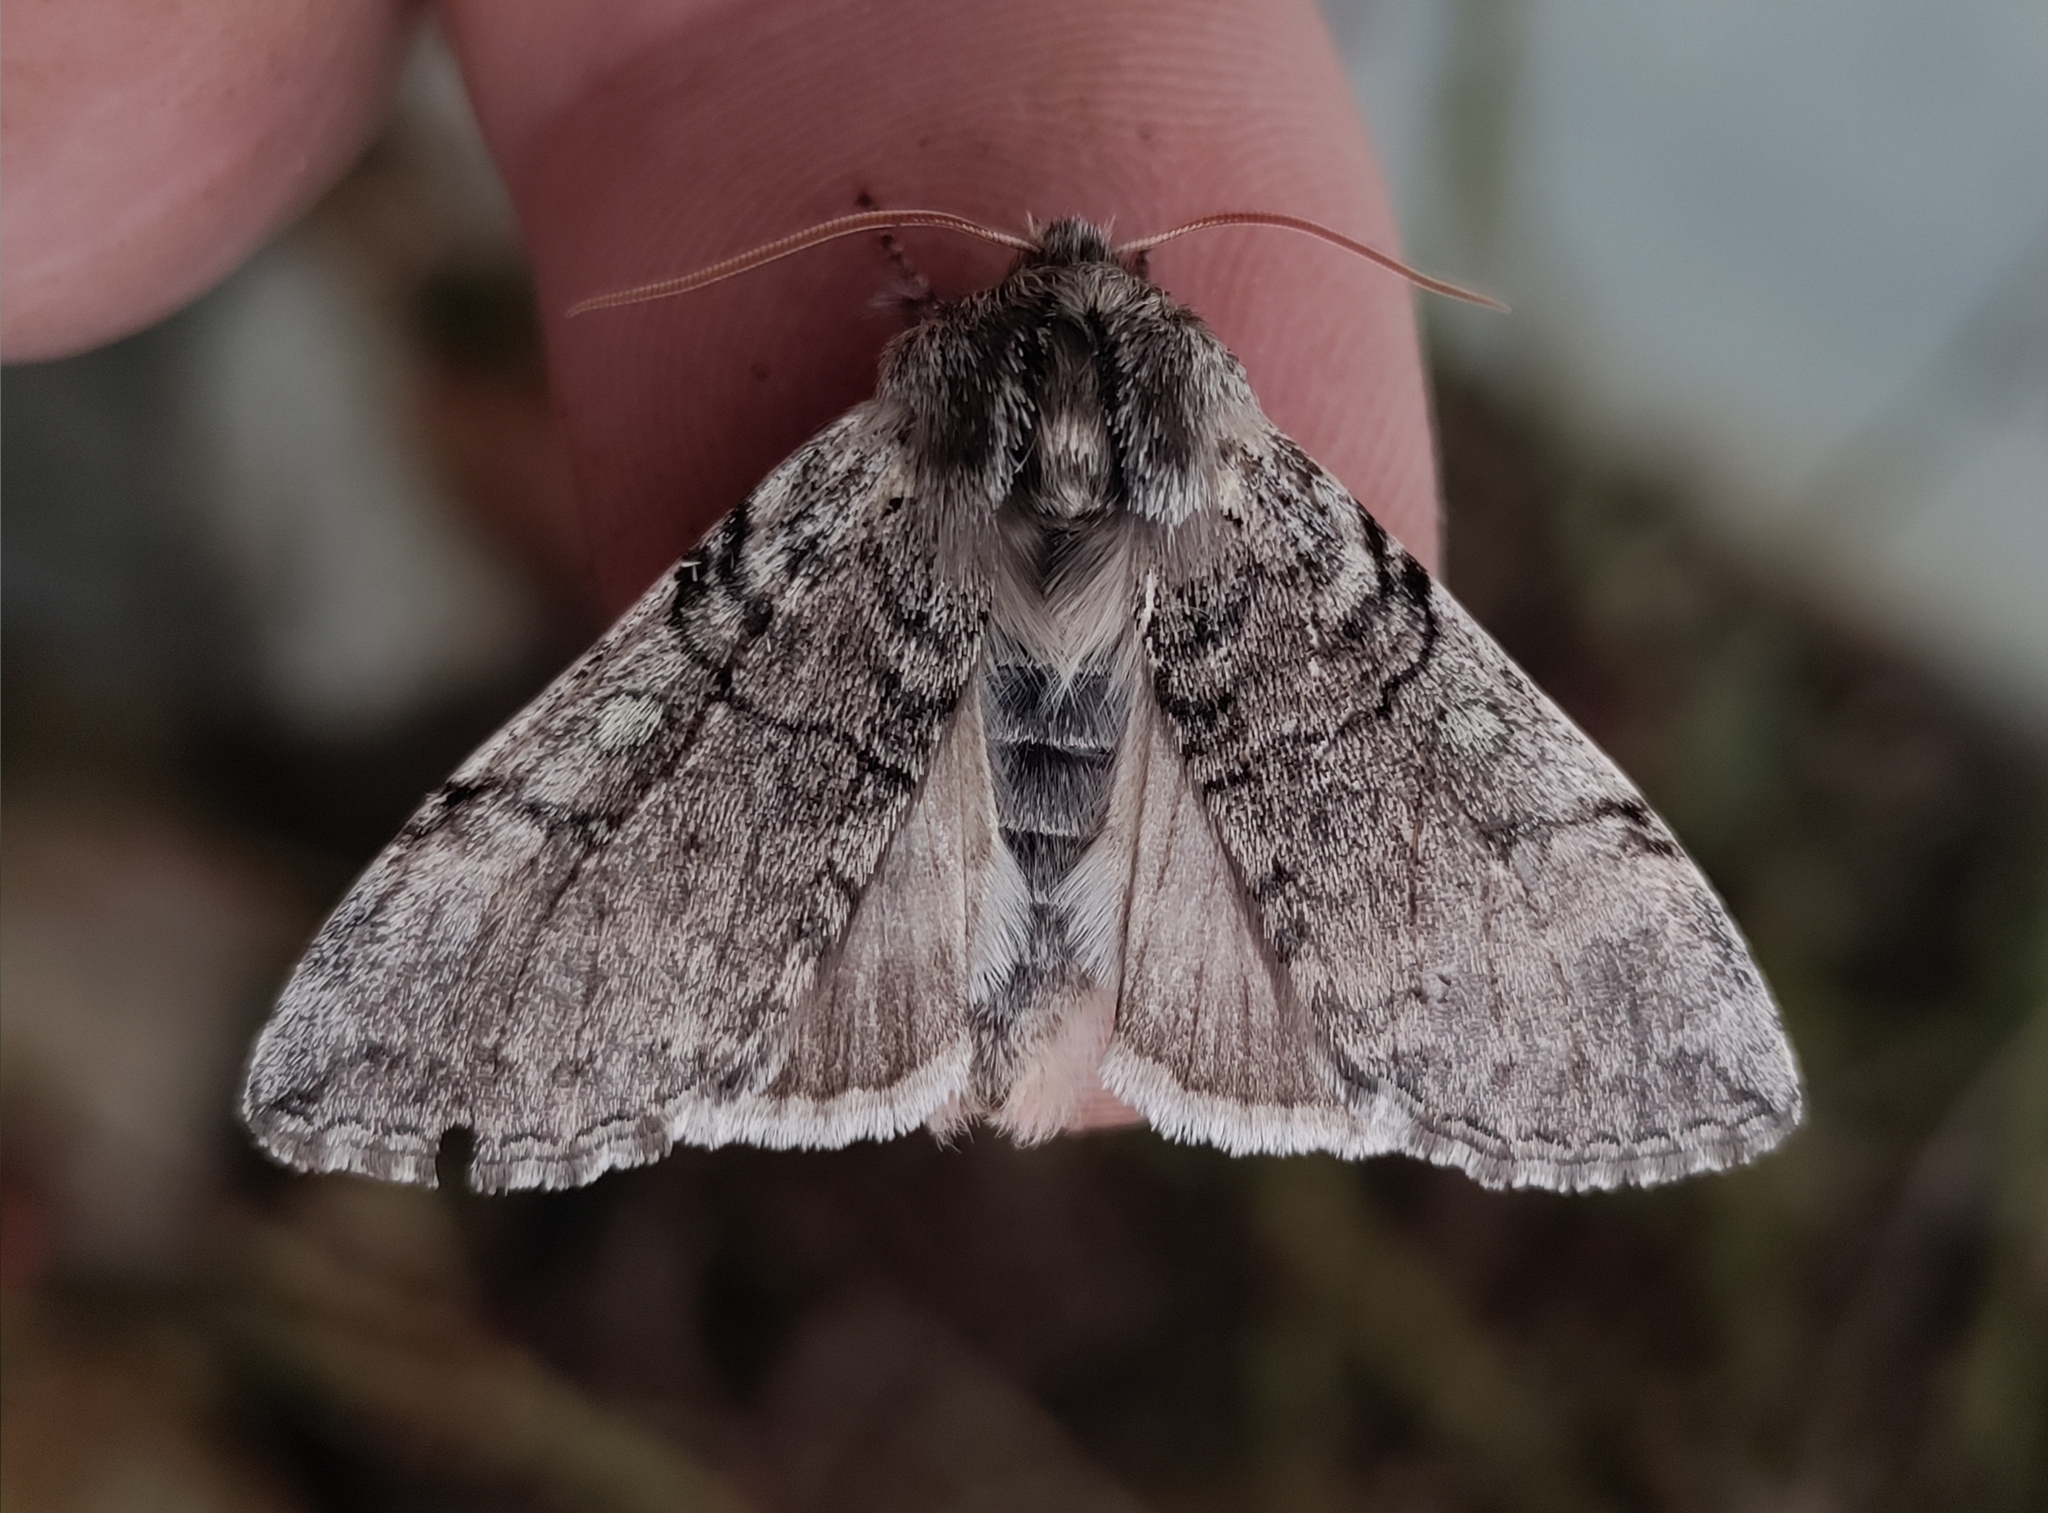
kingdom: Animalia
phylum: Arthropoda
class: Insecta
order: Lepidoptera
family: Drepanidae
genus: Achlya
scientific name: Achlya flavicornis
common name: Yellow horned
